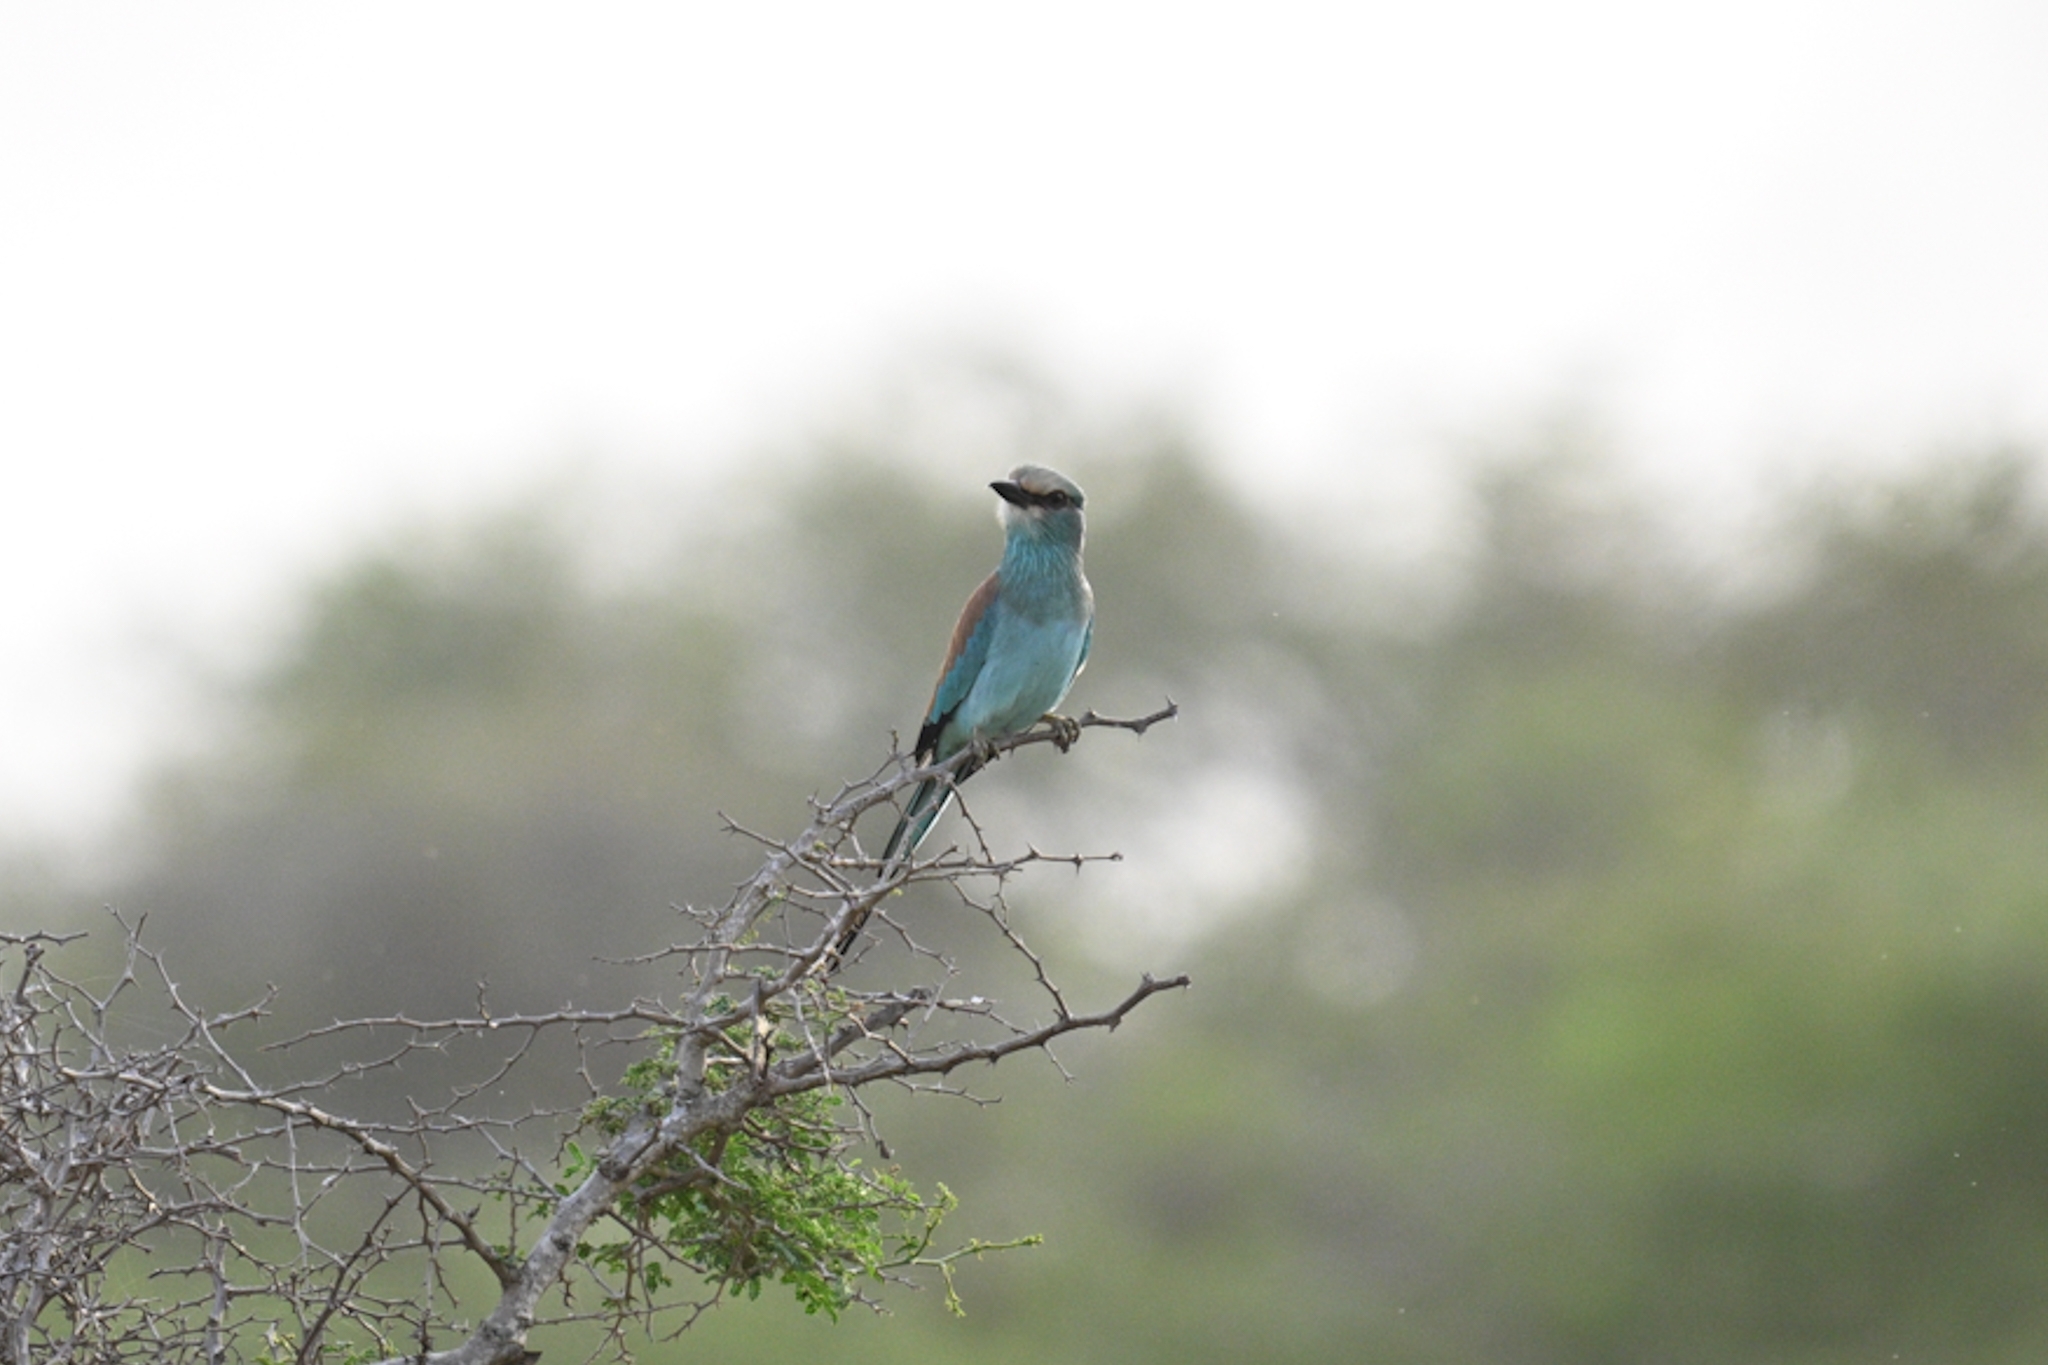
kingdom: Animalia
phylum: Chordata
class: Aves
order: Coraciiformes
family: Coraciidae
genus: Coracias
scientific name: Coracias abyssinicus
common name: Abyssinian roller
